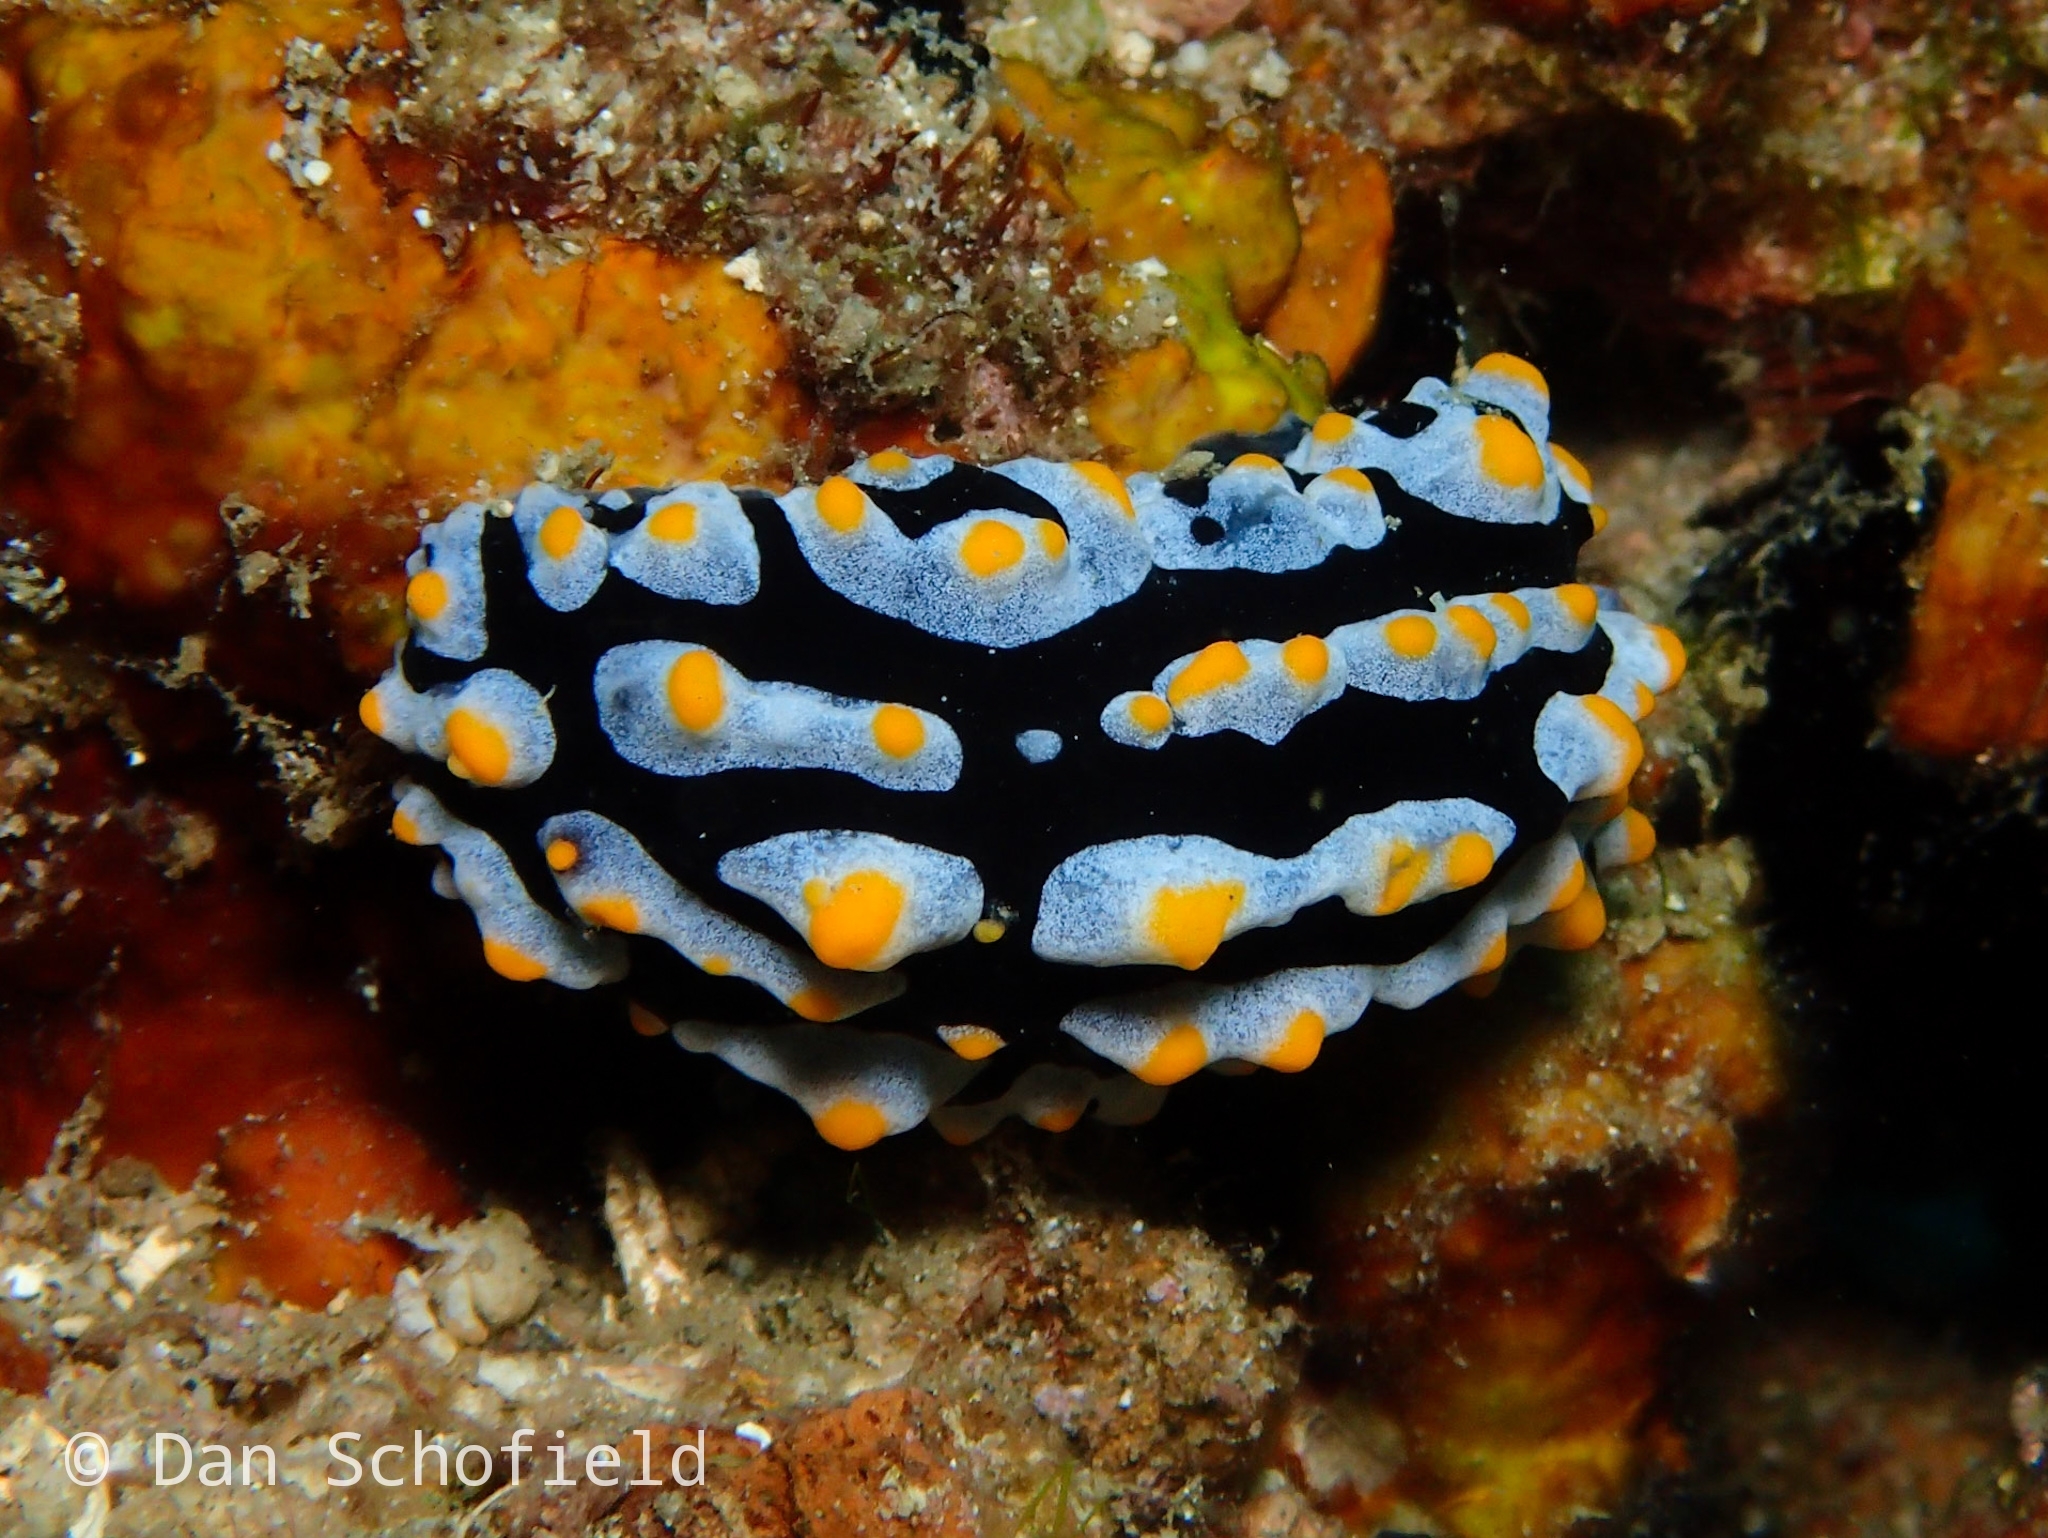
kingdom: Animalia
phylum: Mollusca
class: Gastropoda
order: Nudibranchia
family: Phyllidiidae
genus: Phyllidia
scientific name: Phyllidia varicosa
